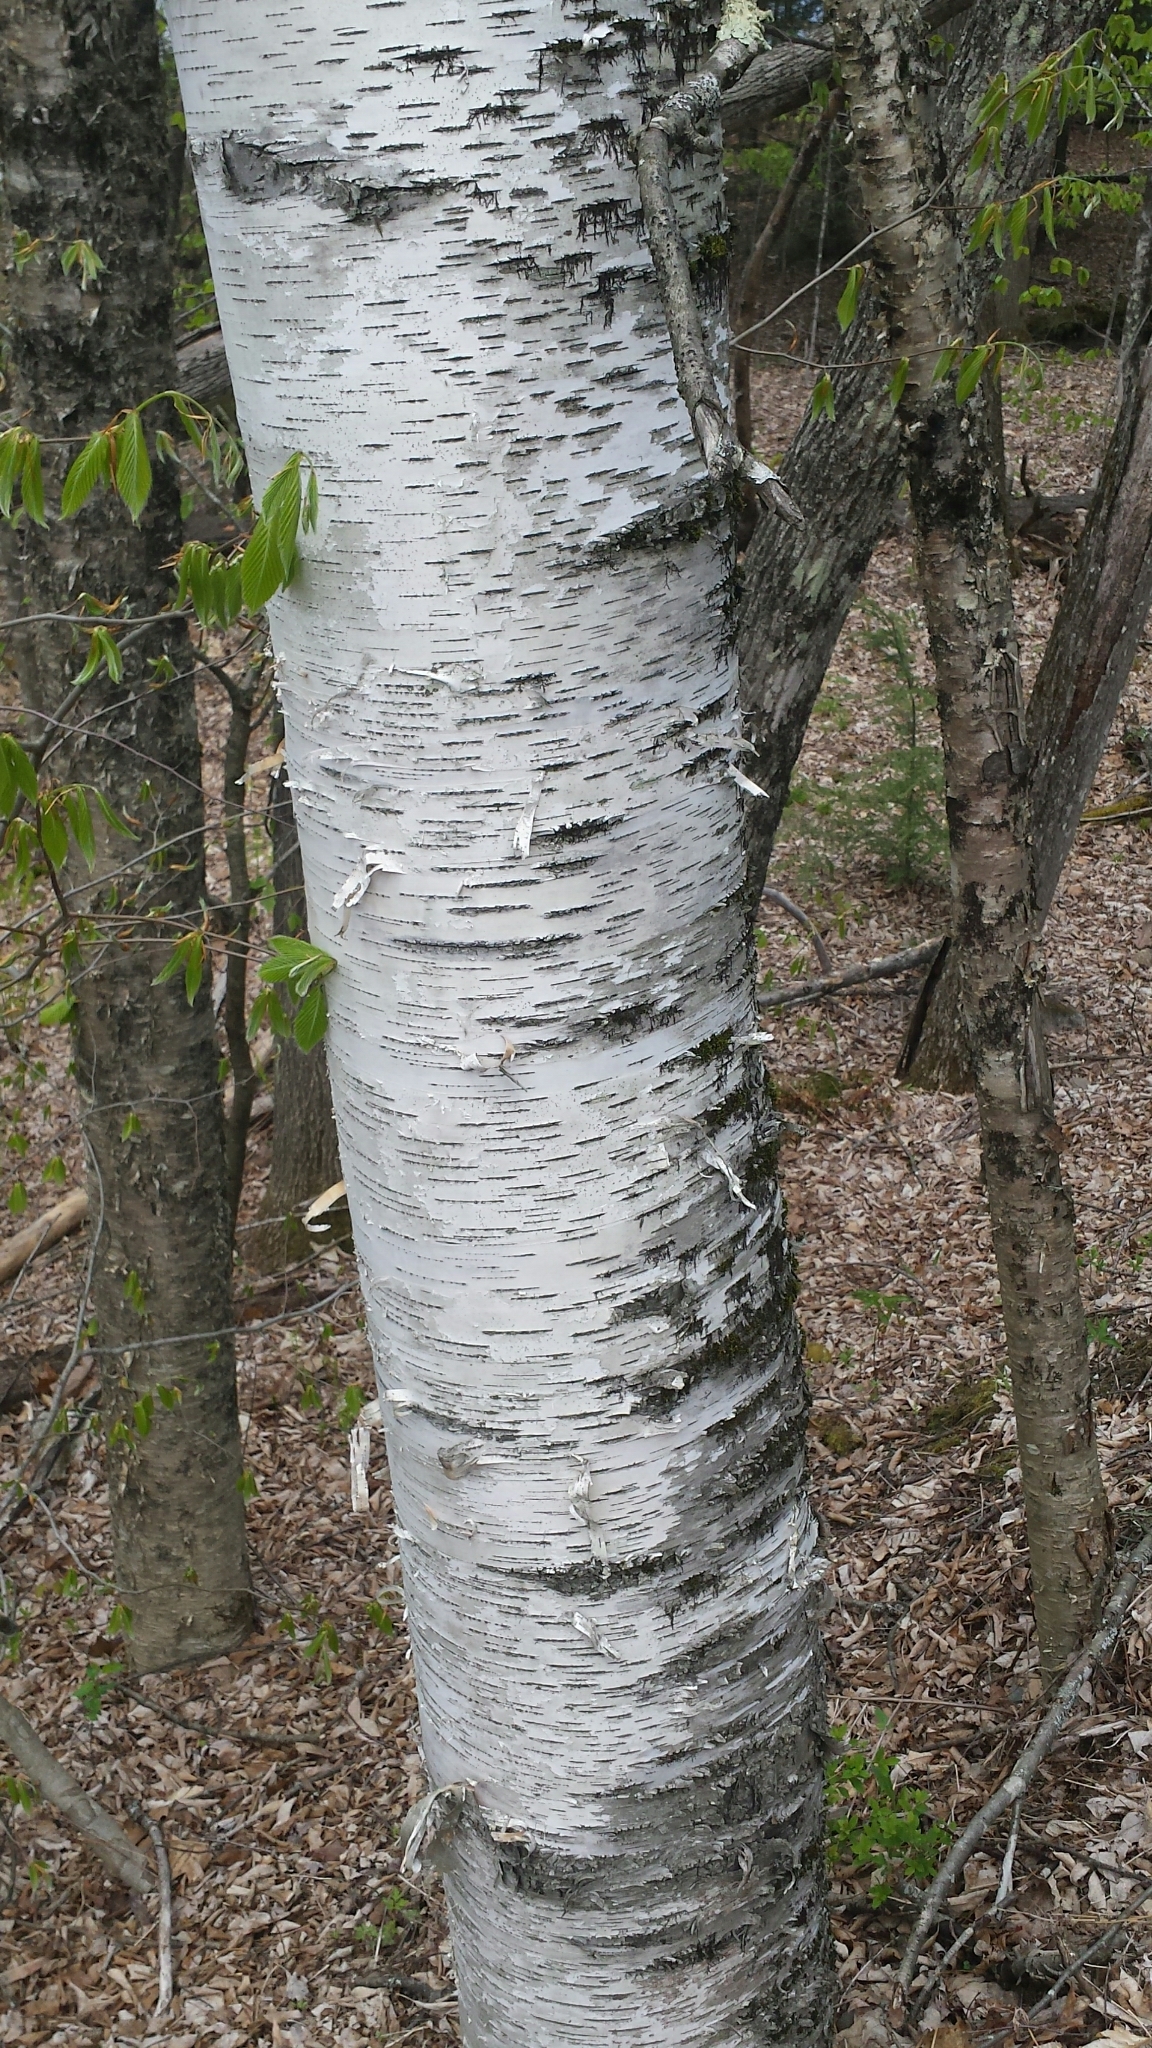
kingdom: Plantae
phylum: Tracheophyta
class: Magnoliopsida
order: Fagales
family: Betulaceae
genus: Betula
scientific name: Betula papyrifera
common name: Paper birch
